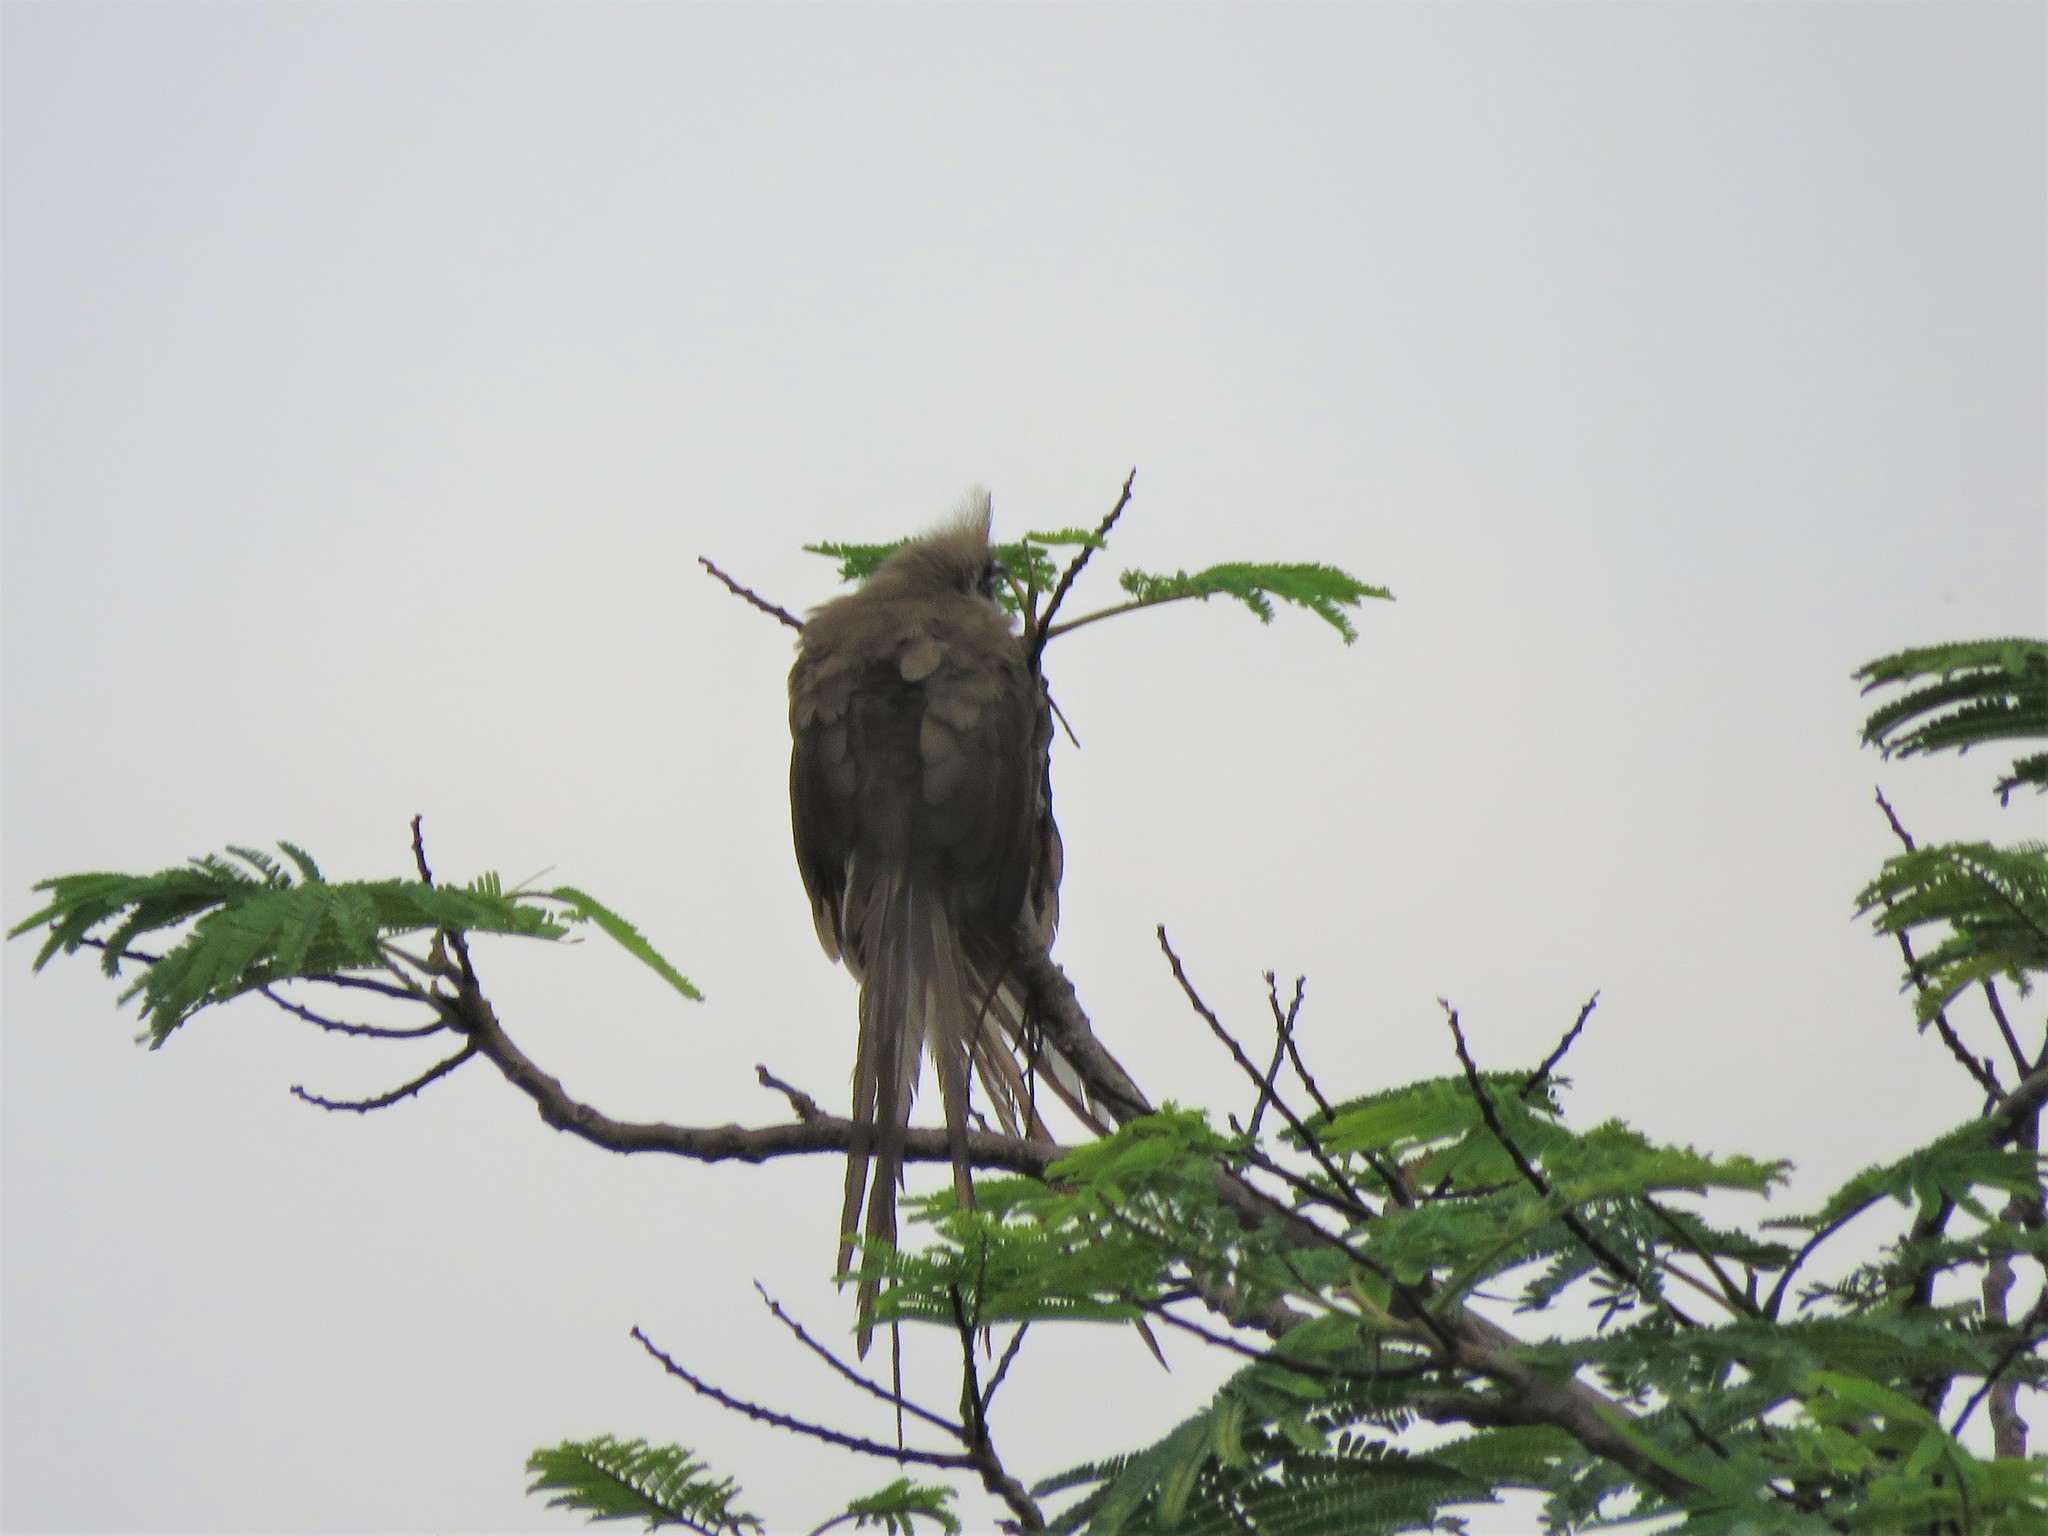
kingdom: Animalia
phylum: Chordata
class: Aves
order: Coliiformes
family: Coliidae
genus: Colius
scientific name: Colius striatus
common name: Speckled mousebird
